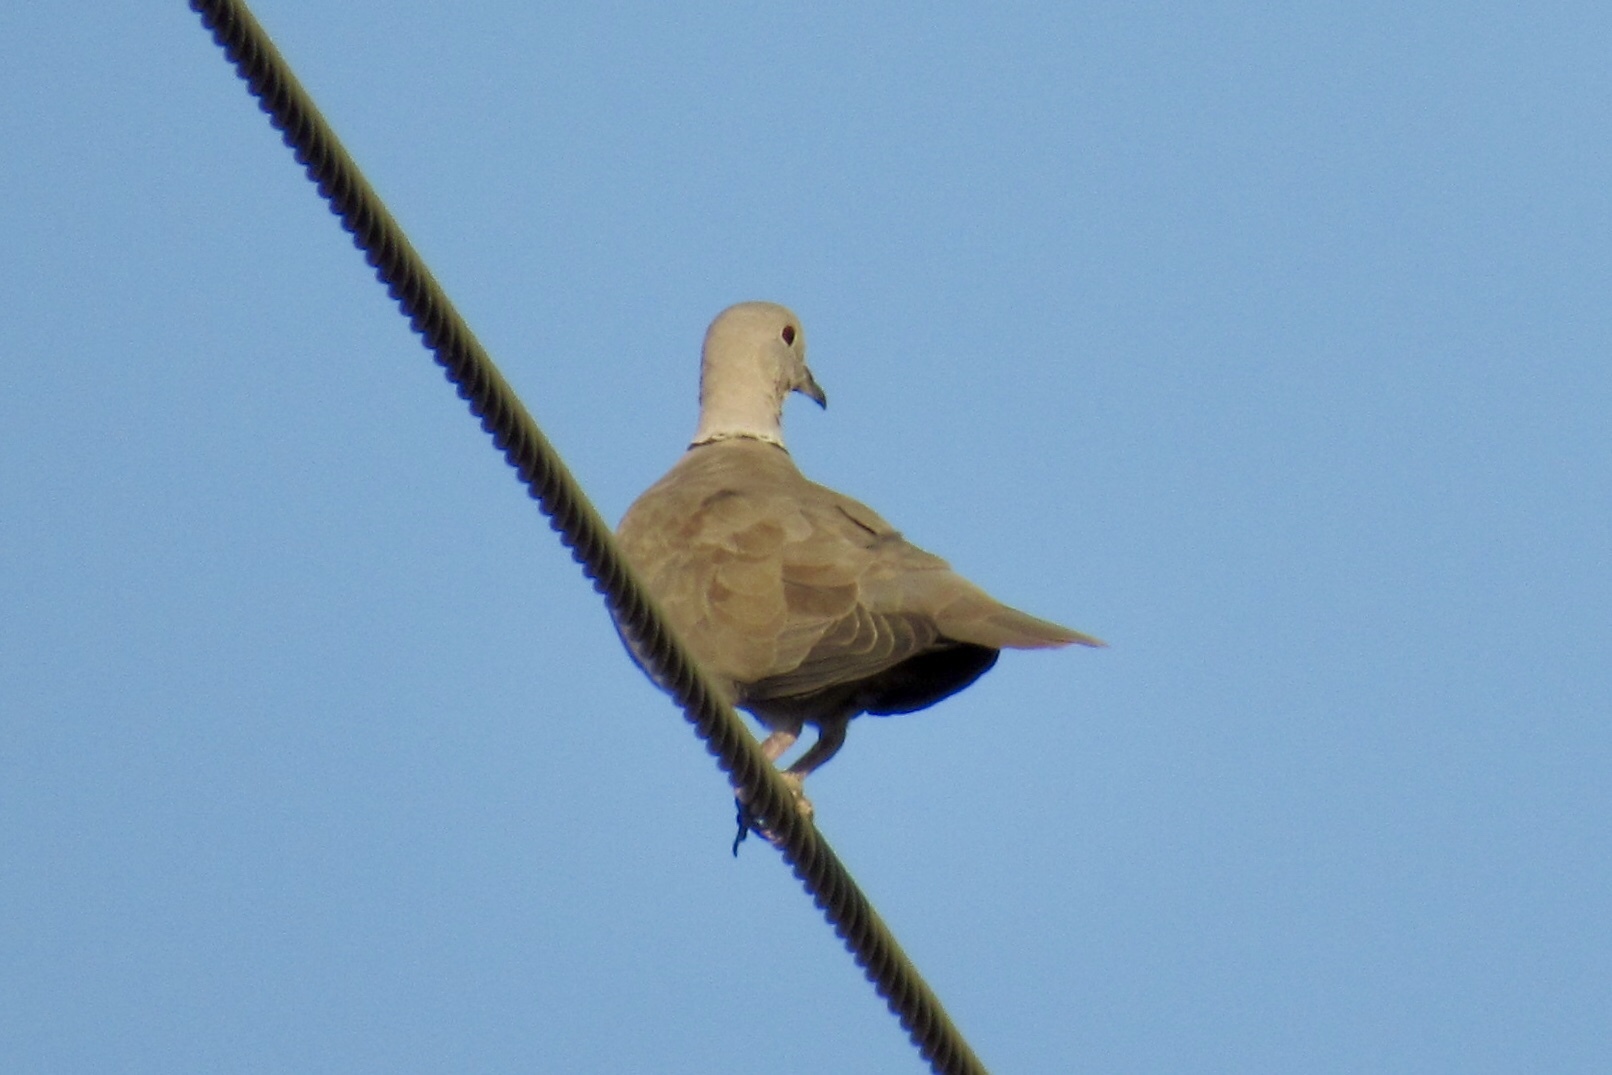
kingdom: Animalia
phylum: Chordata
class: Aves
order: Columbiformes
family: Columbidae
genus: Streptopelia
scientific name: Streptopelia decaocto
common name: Eurasian collared dove
